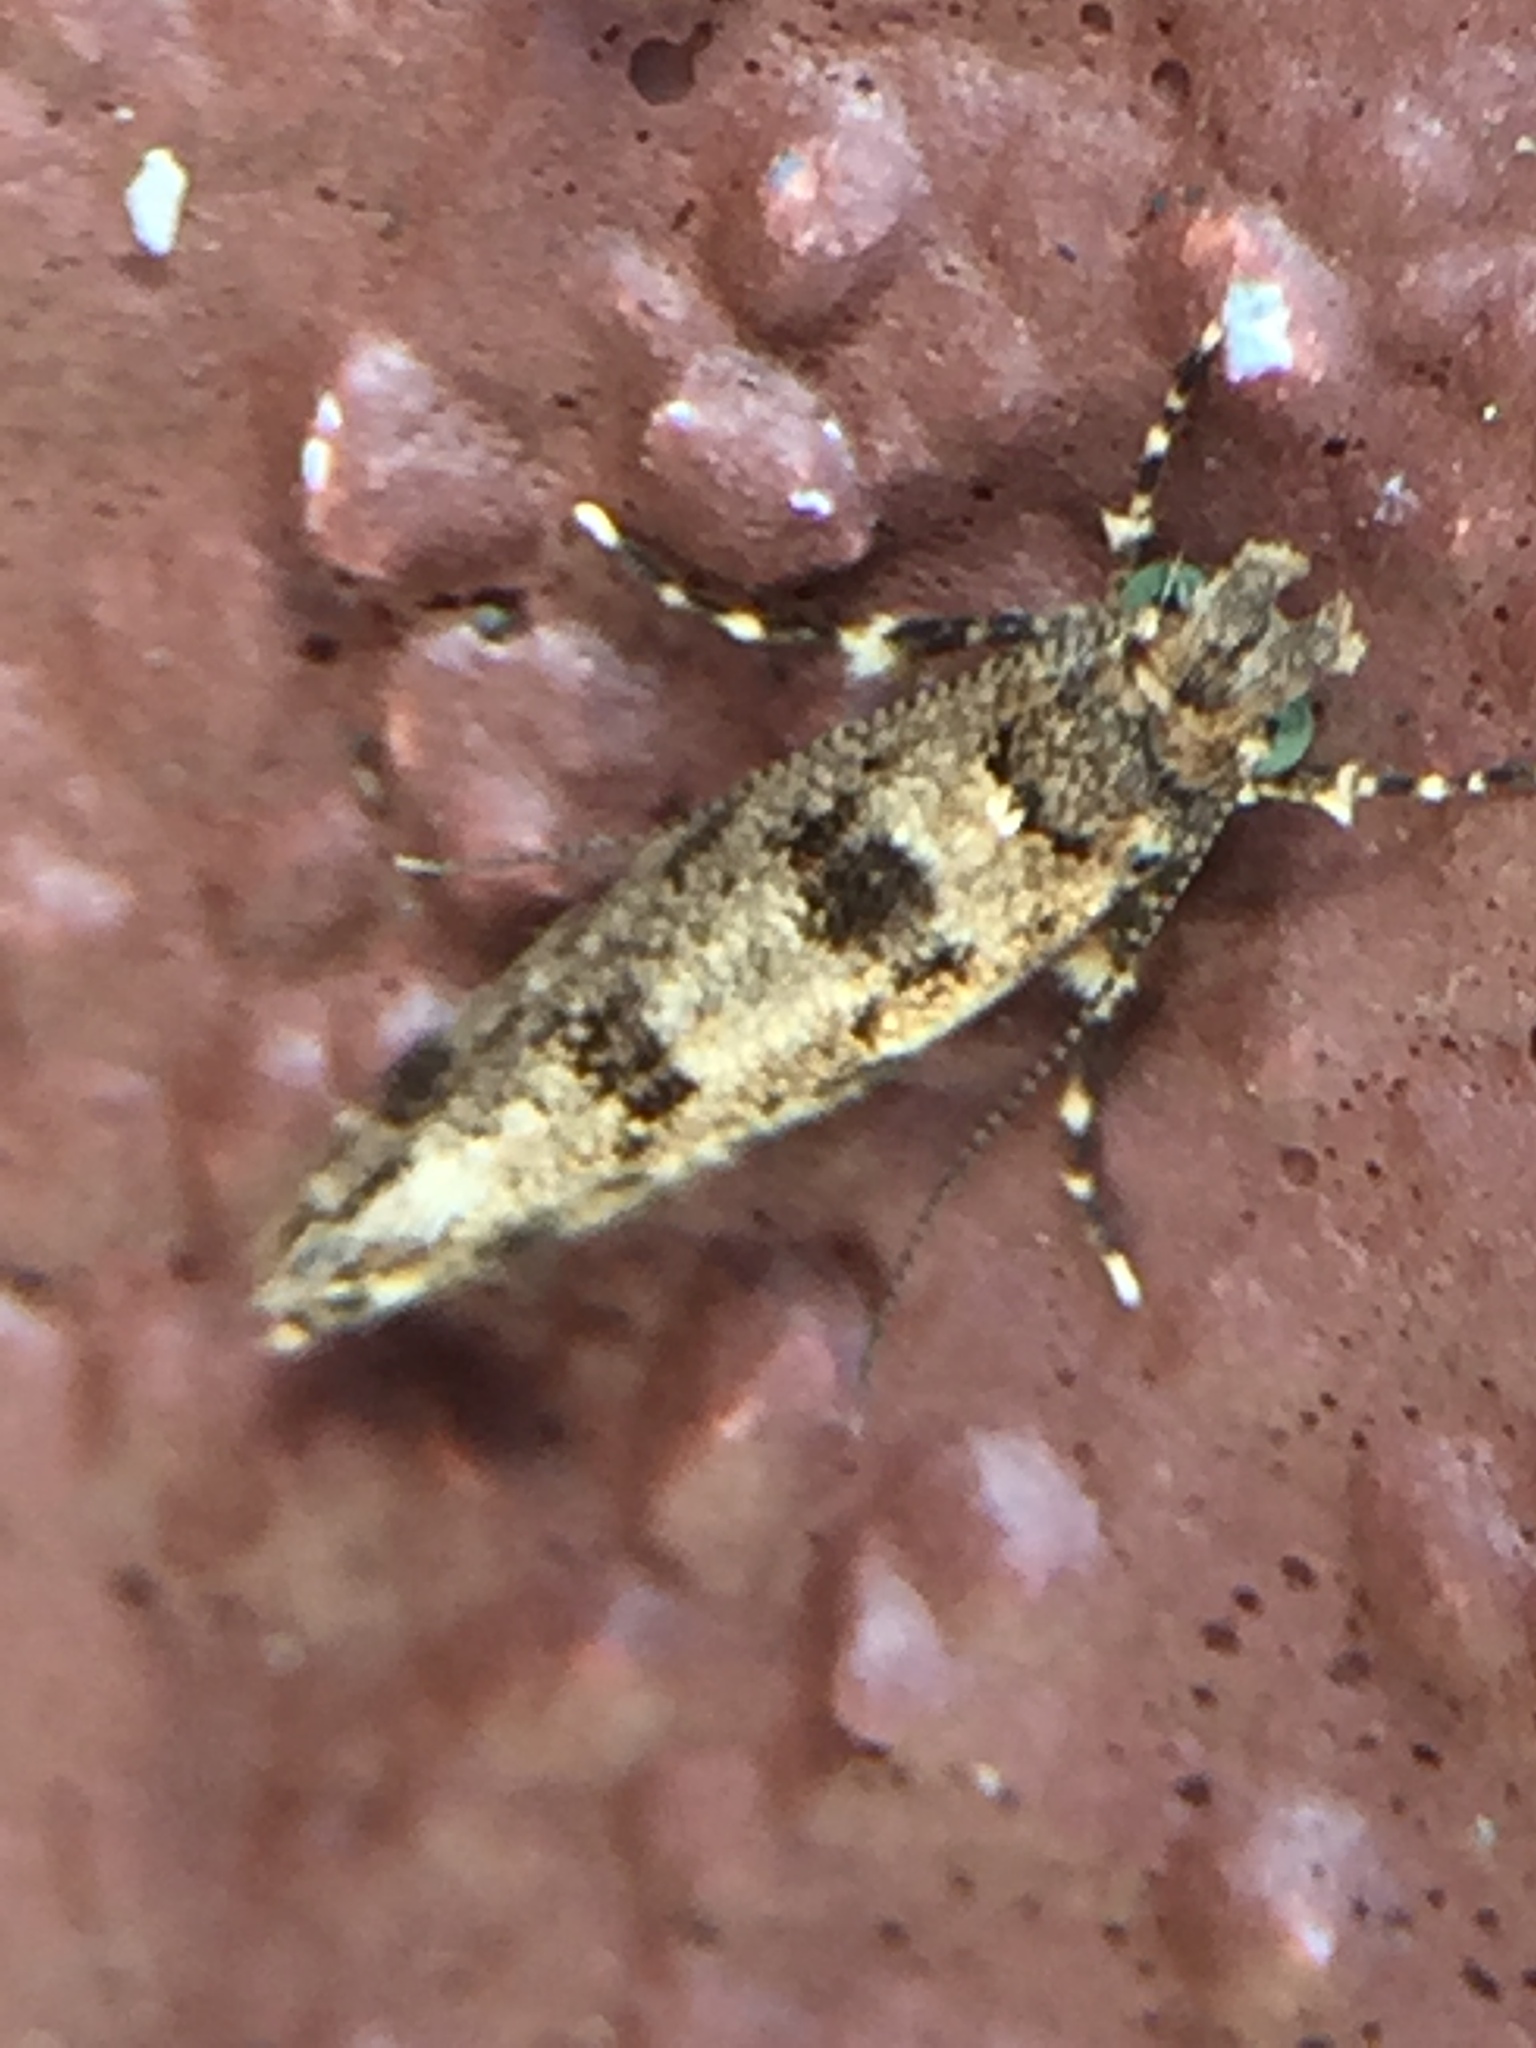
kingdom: Animalia
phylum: Arthropoda
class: Insecta
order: Lepidoptera
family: Tineidae
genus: Parochmastis
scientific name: Parochmastis hilderi
